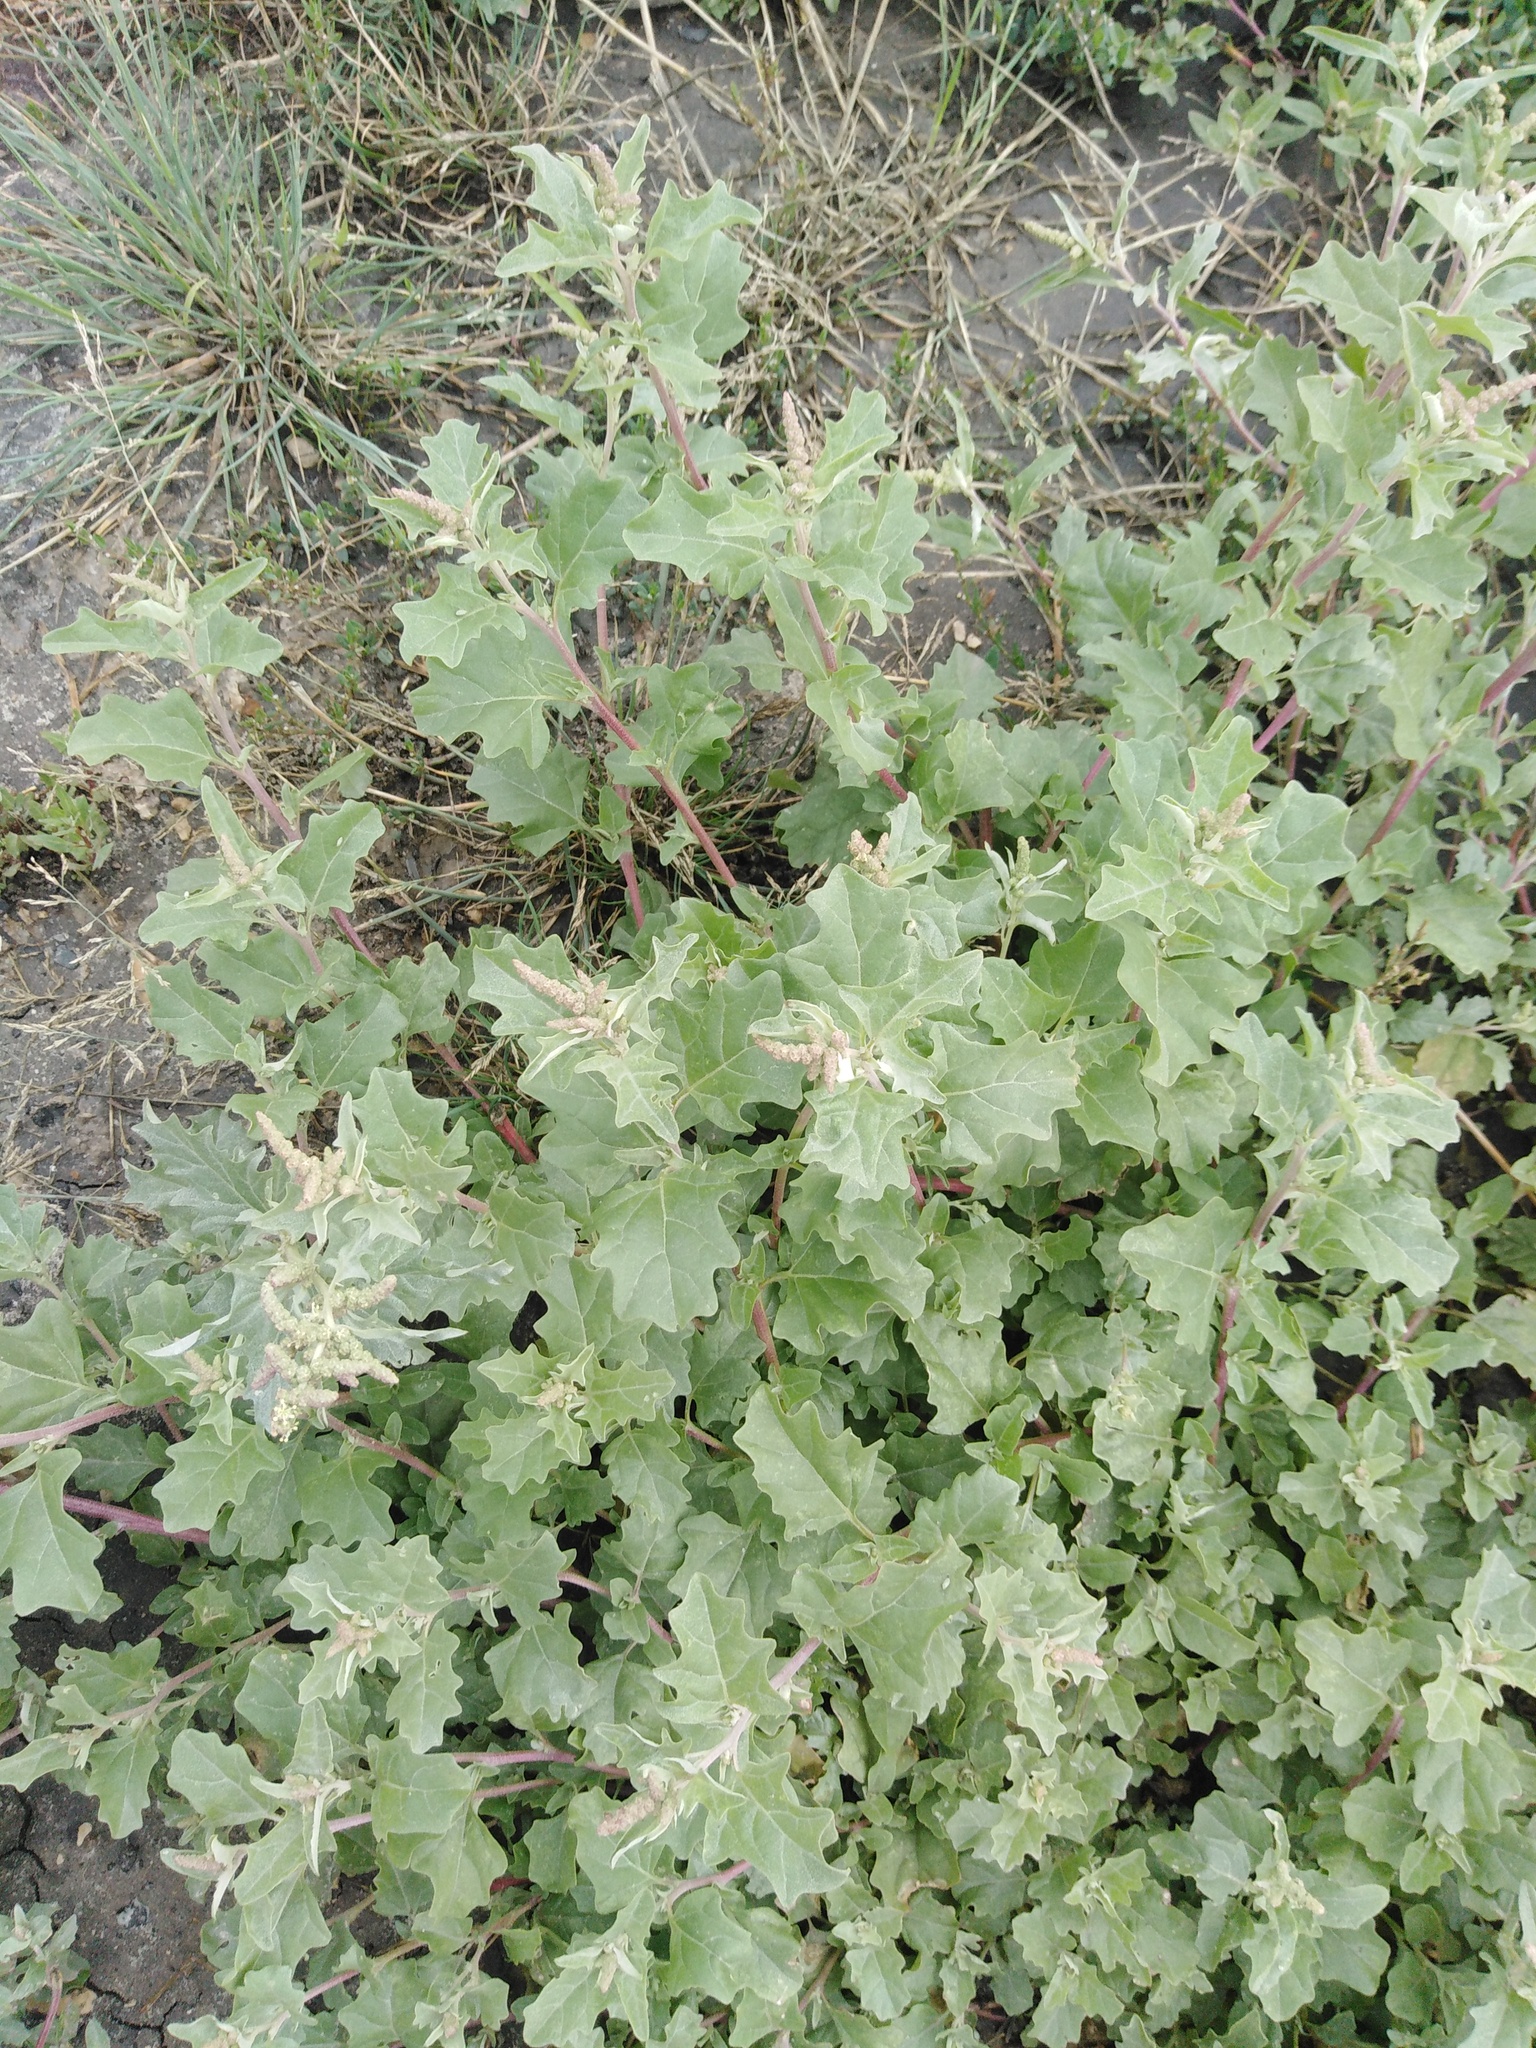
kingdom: Plantae
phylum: Tracheophyta
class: Magnoliopsida
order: Caryophyllales
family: Amaranthaceae
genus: Atriplex
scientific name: Atriplex tatarica
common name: Tatarian orache
